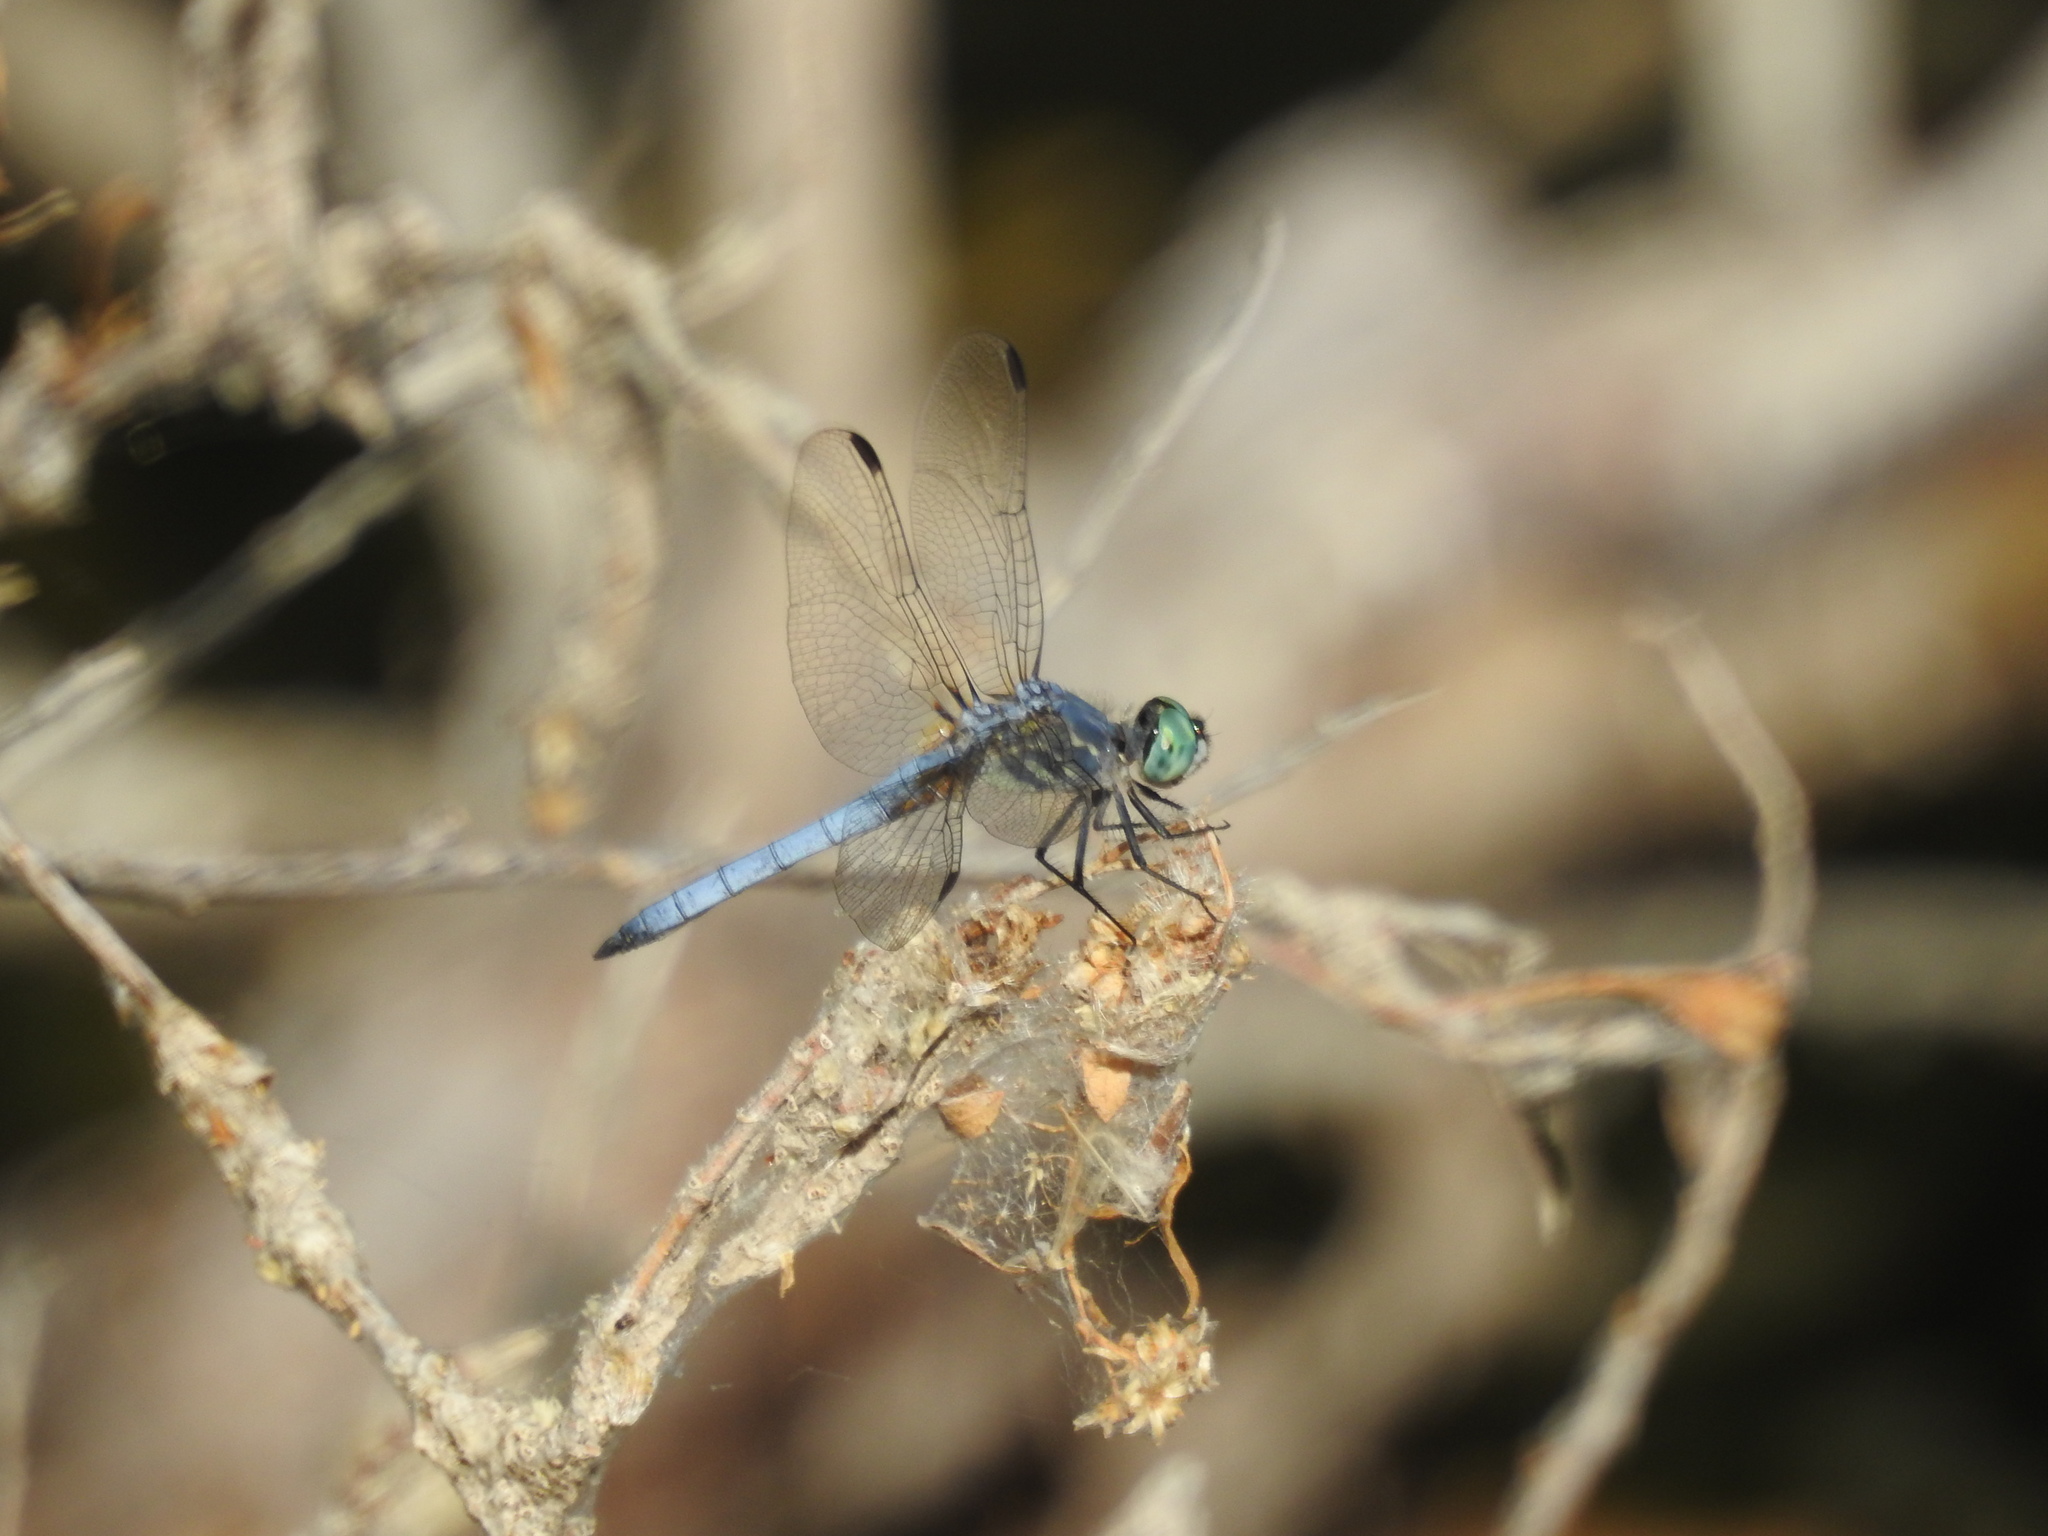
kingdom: Animalia
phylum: Arthropoda
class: Insecta
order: Odonata
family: Libellulidae
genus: Pachydiplax
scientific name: Pachydiplax longipennis
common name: Blue dasher
